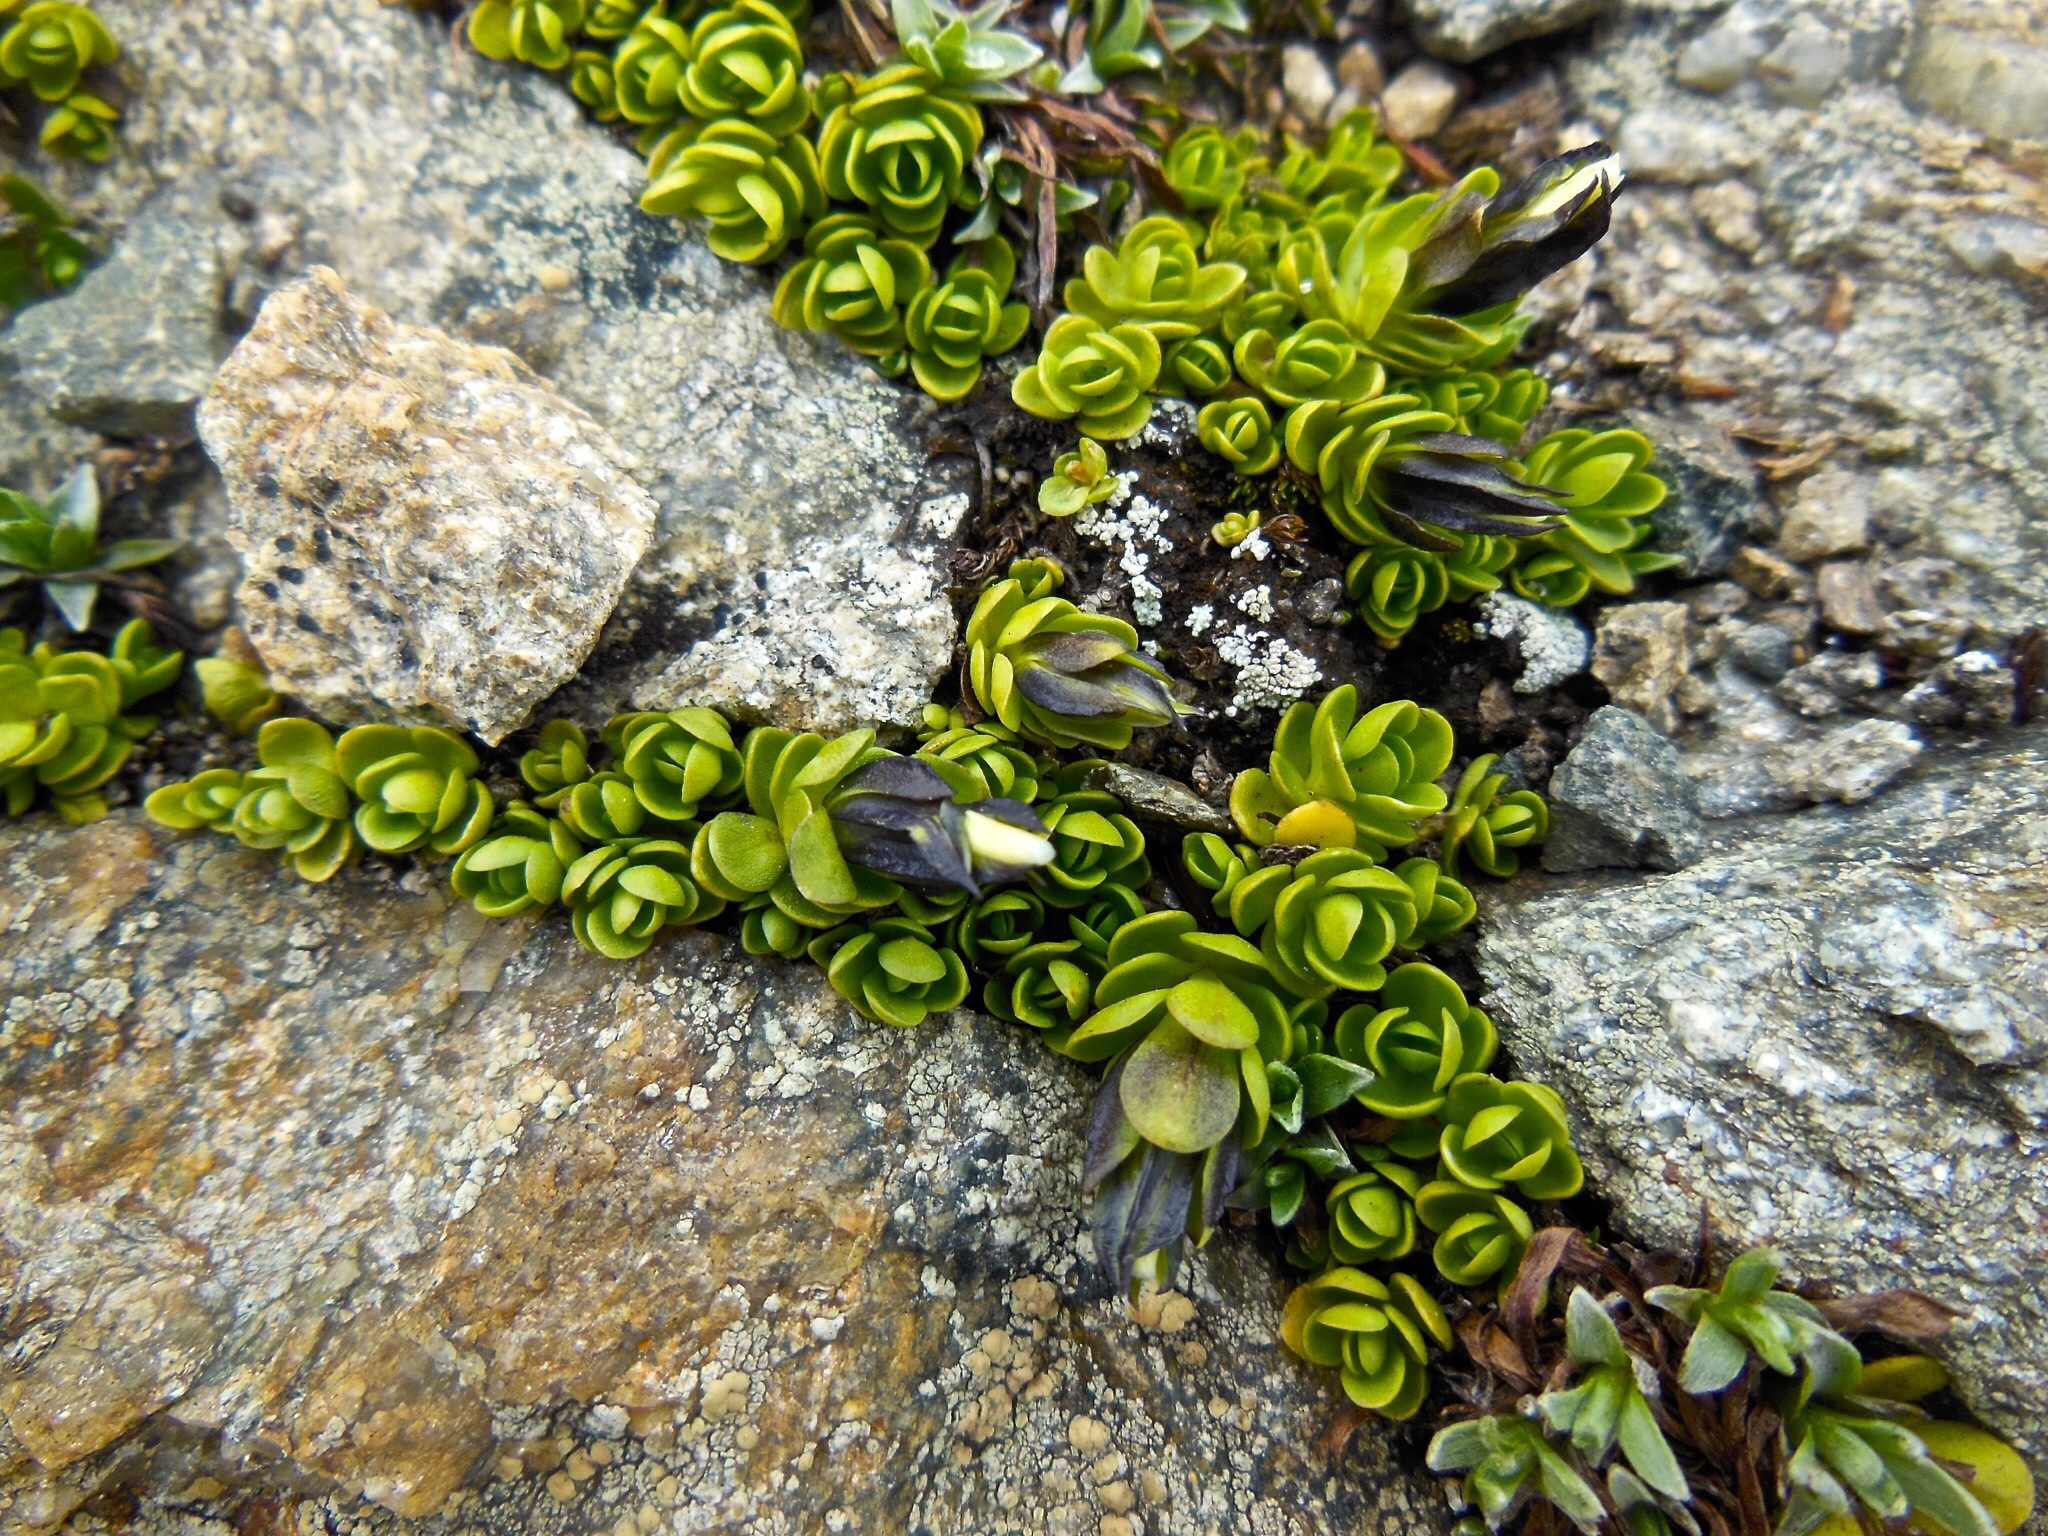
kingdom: Plantae
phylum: Tracheophyta
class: Magnoliopsida
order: Gentianales
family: Gentianaceae
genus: Gentiana
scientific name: Gentiana bavarica
